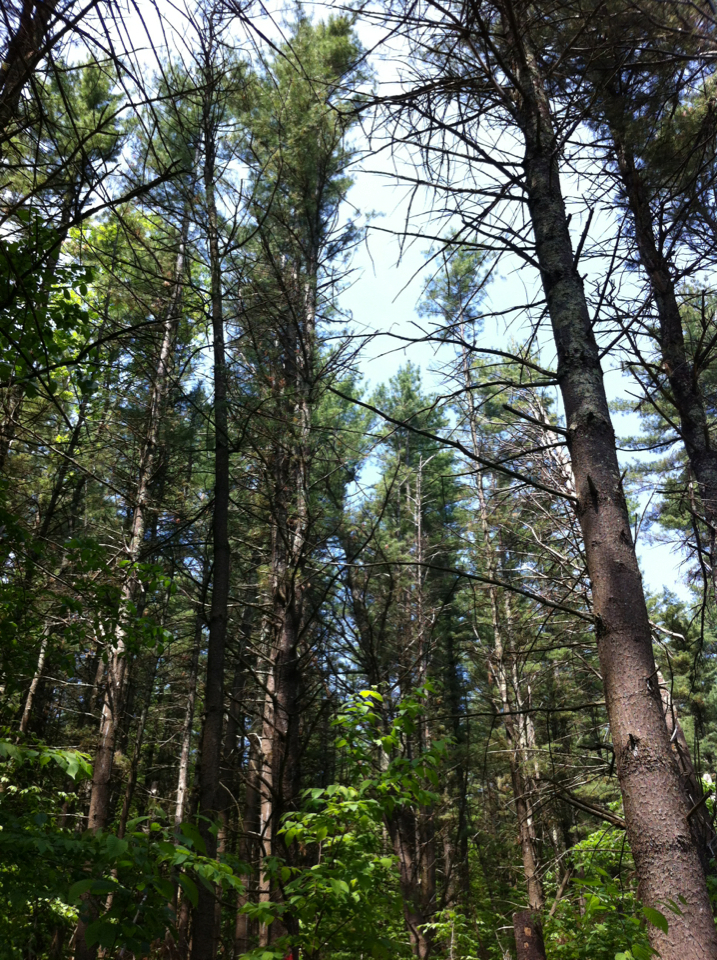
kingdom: Plantae
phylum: Tracheophyta
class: Pinopsida
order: Pinales
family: Pinaceae
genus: Pinus
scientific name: Pinus strobus
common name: Weymouth pine
